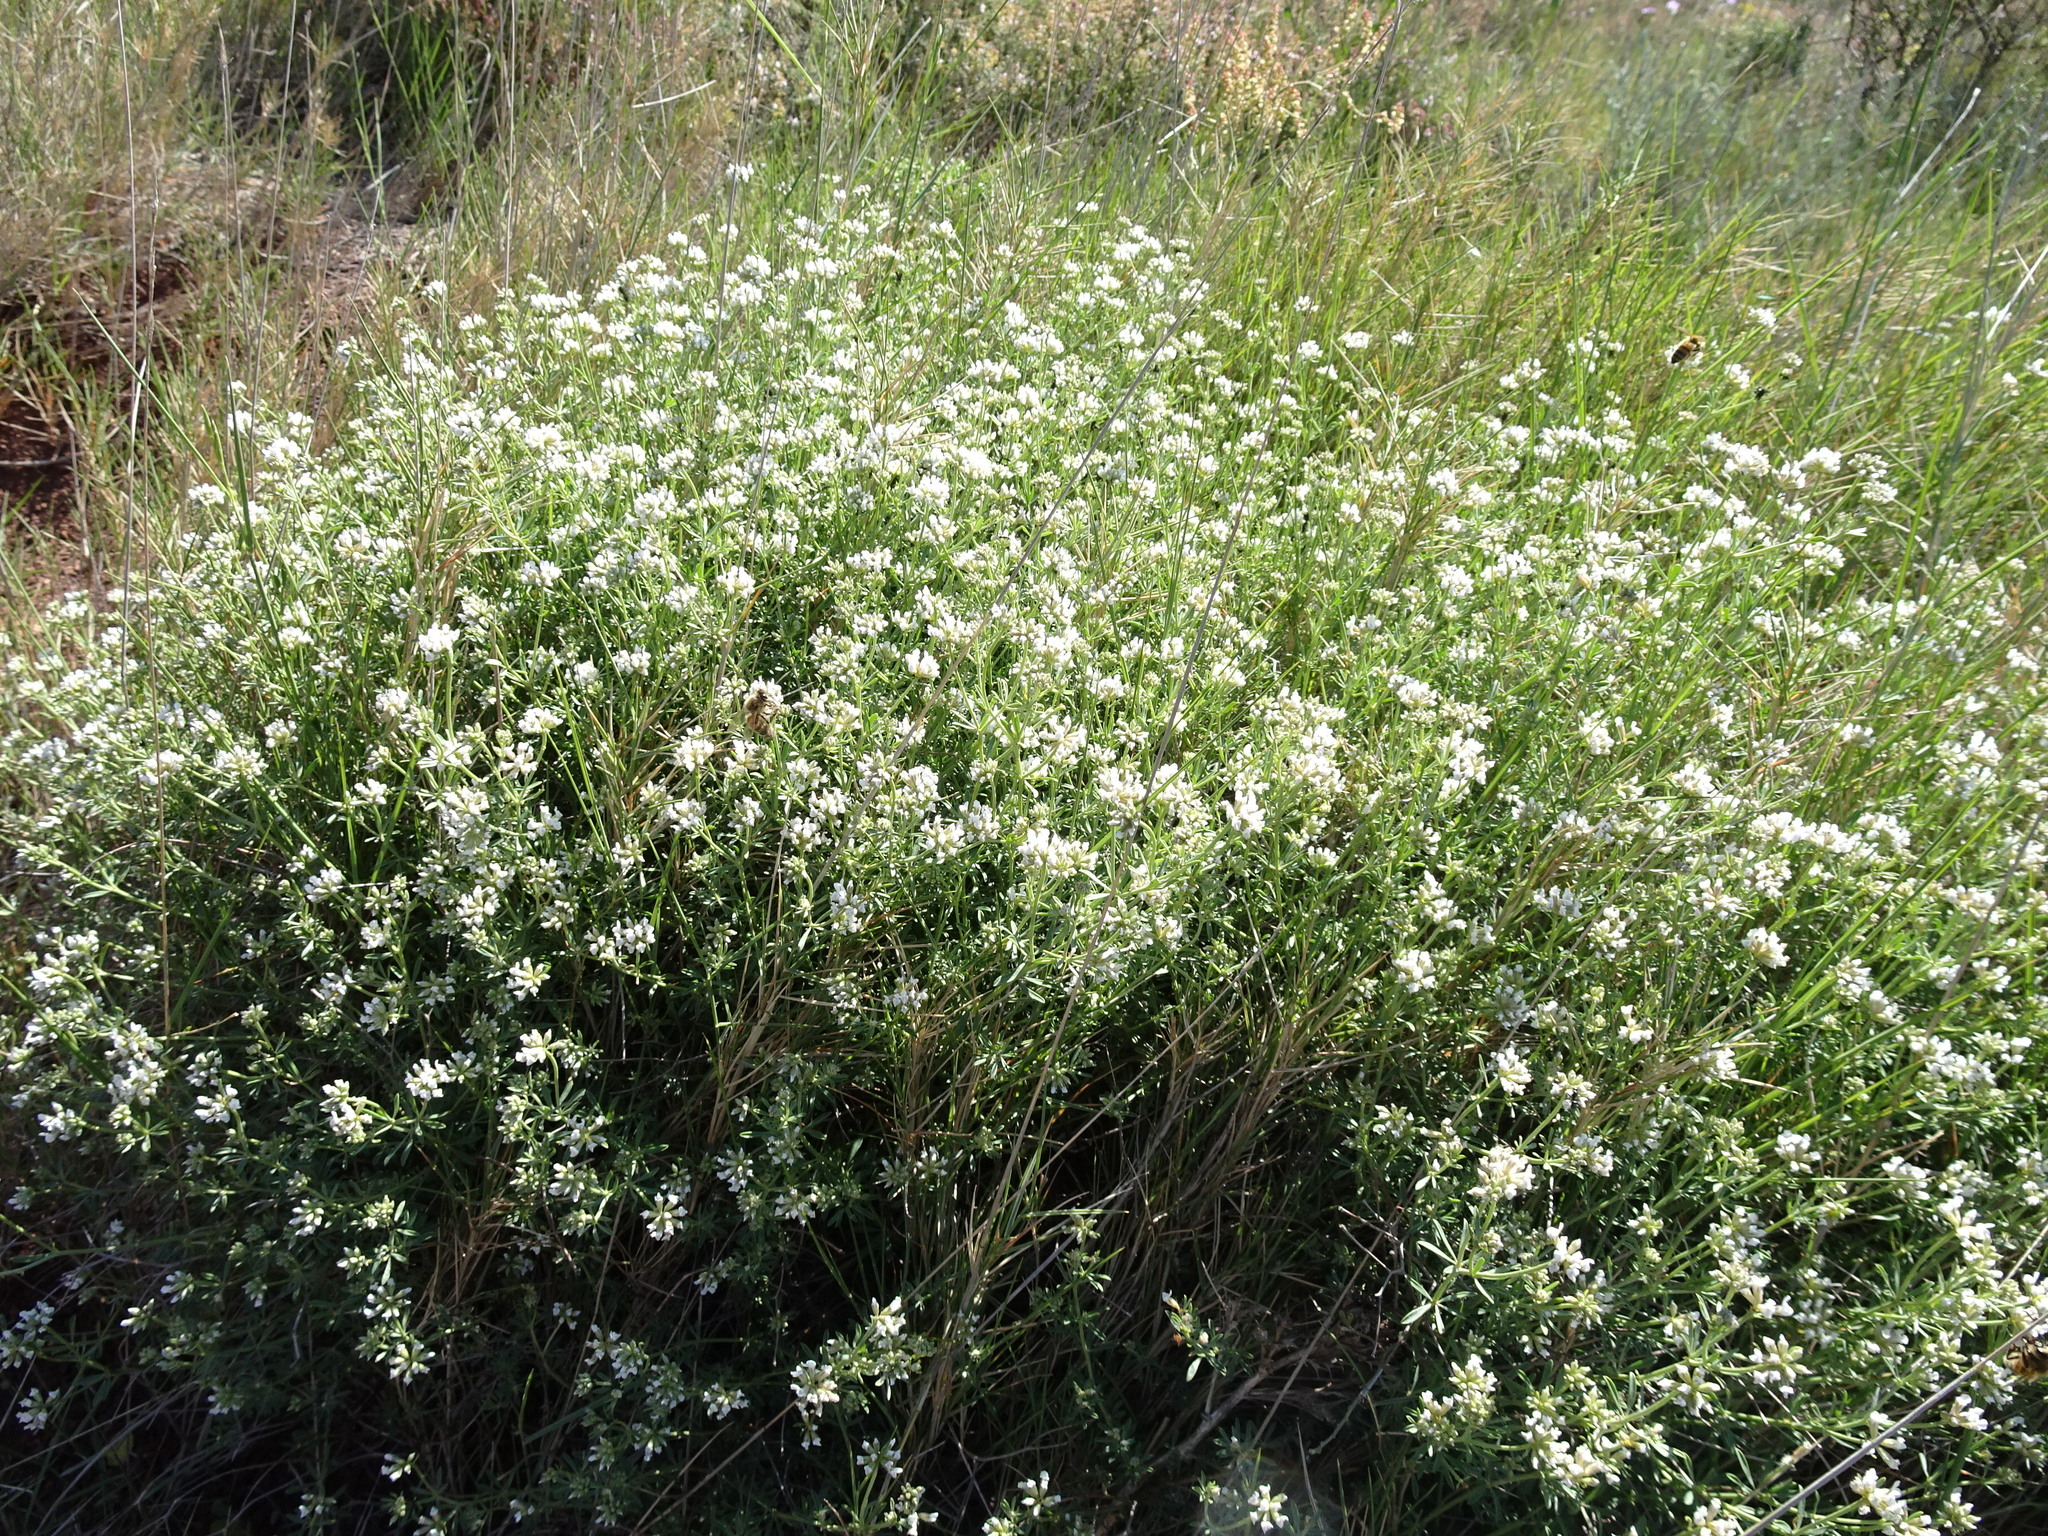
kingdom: Plantae
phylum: Tracheophyta
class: Magnoliopsida
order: Fabales
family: Fabaceae
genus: Lotus
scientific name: Lotus dorycnium
